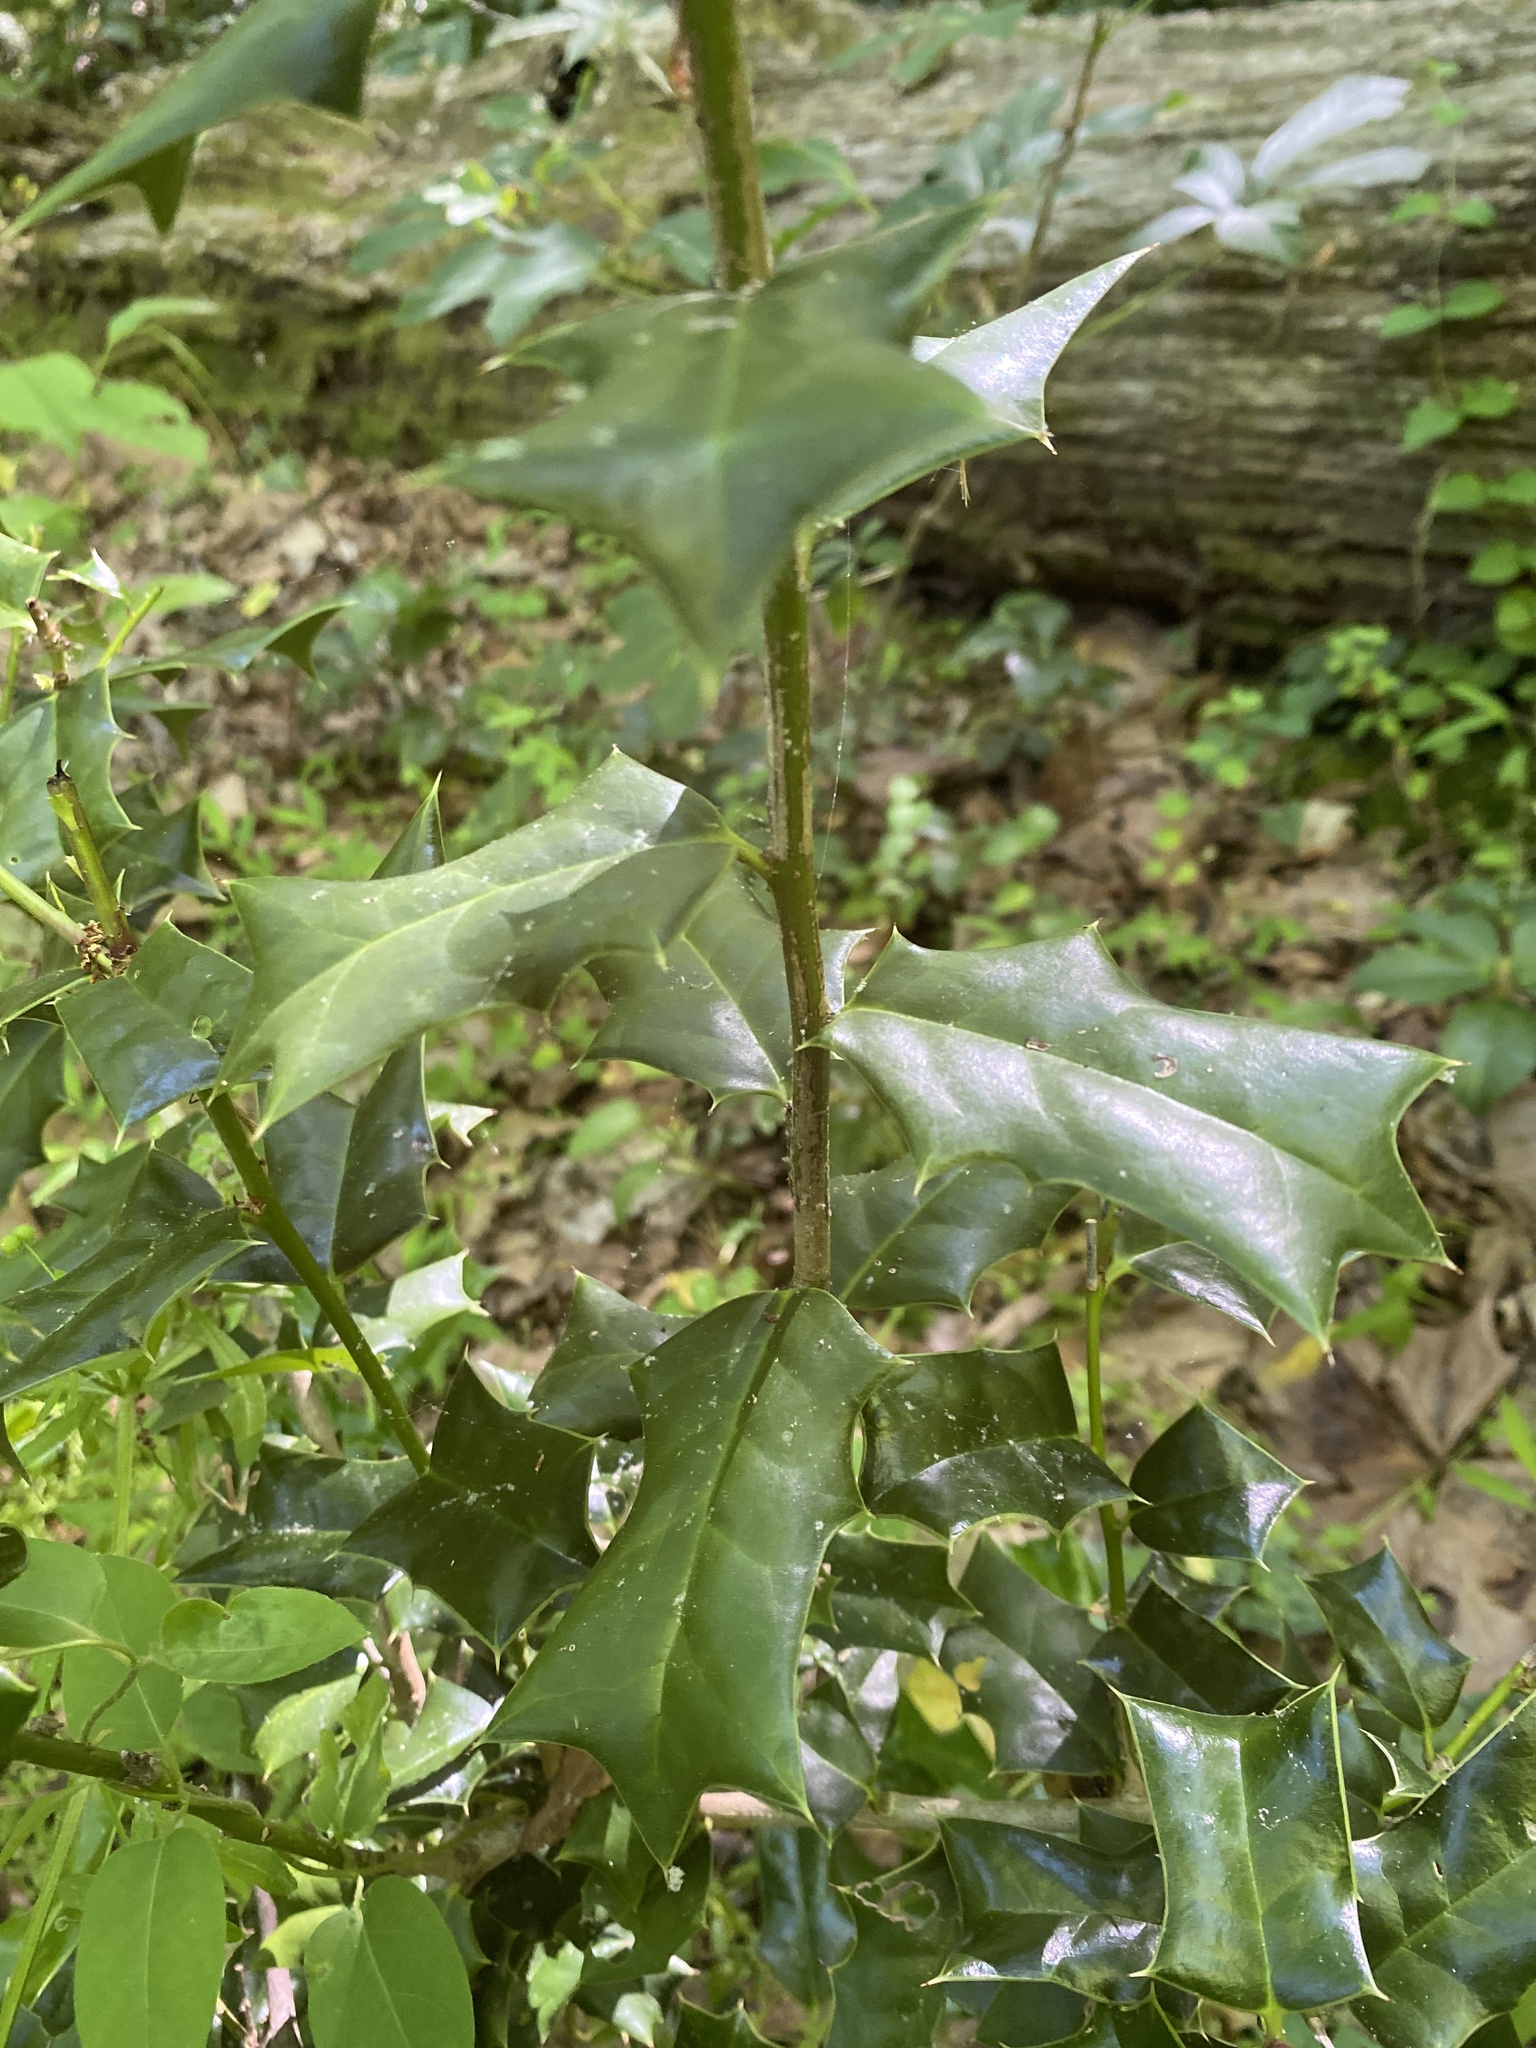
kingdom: Plantae
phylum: Tracheophyta
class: Magnoliopsida
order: Aquifoliales
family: Aquifoliaceae
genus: Ilex
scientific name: Ilex cornuta
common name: Chinese holly
